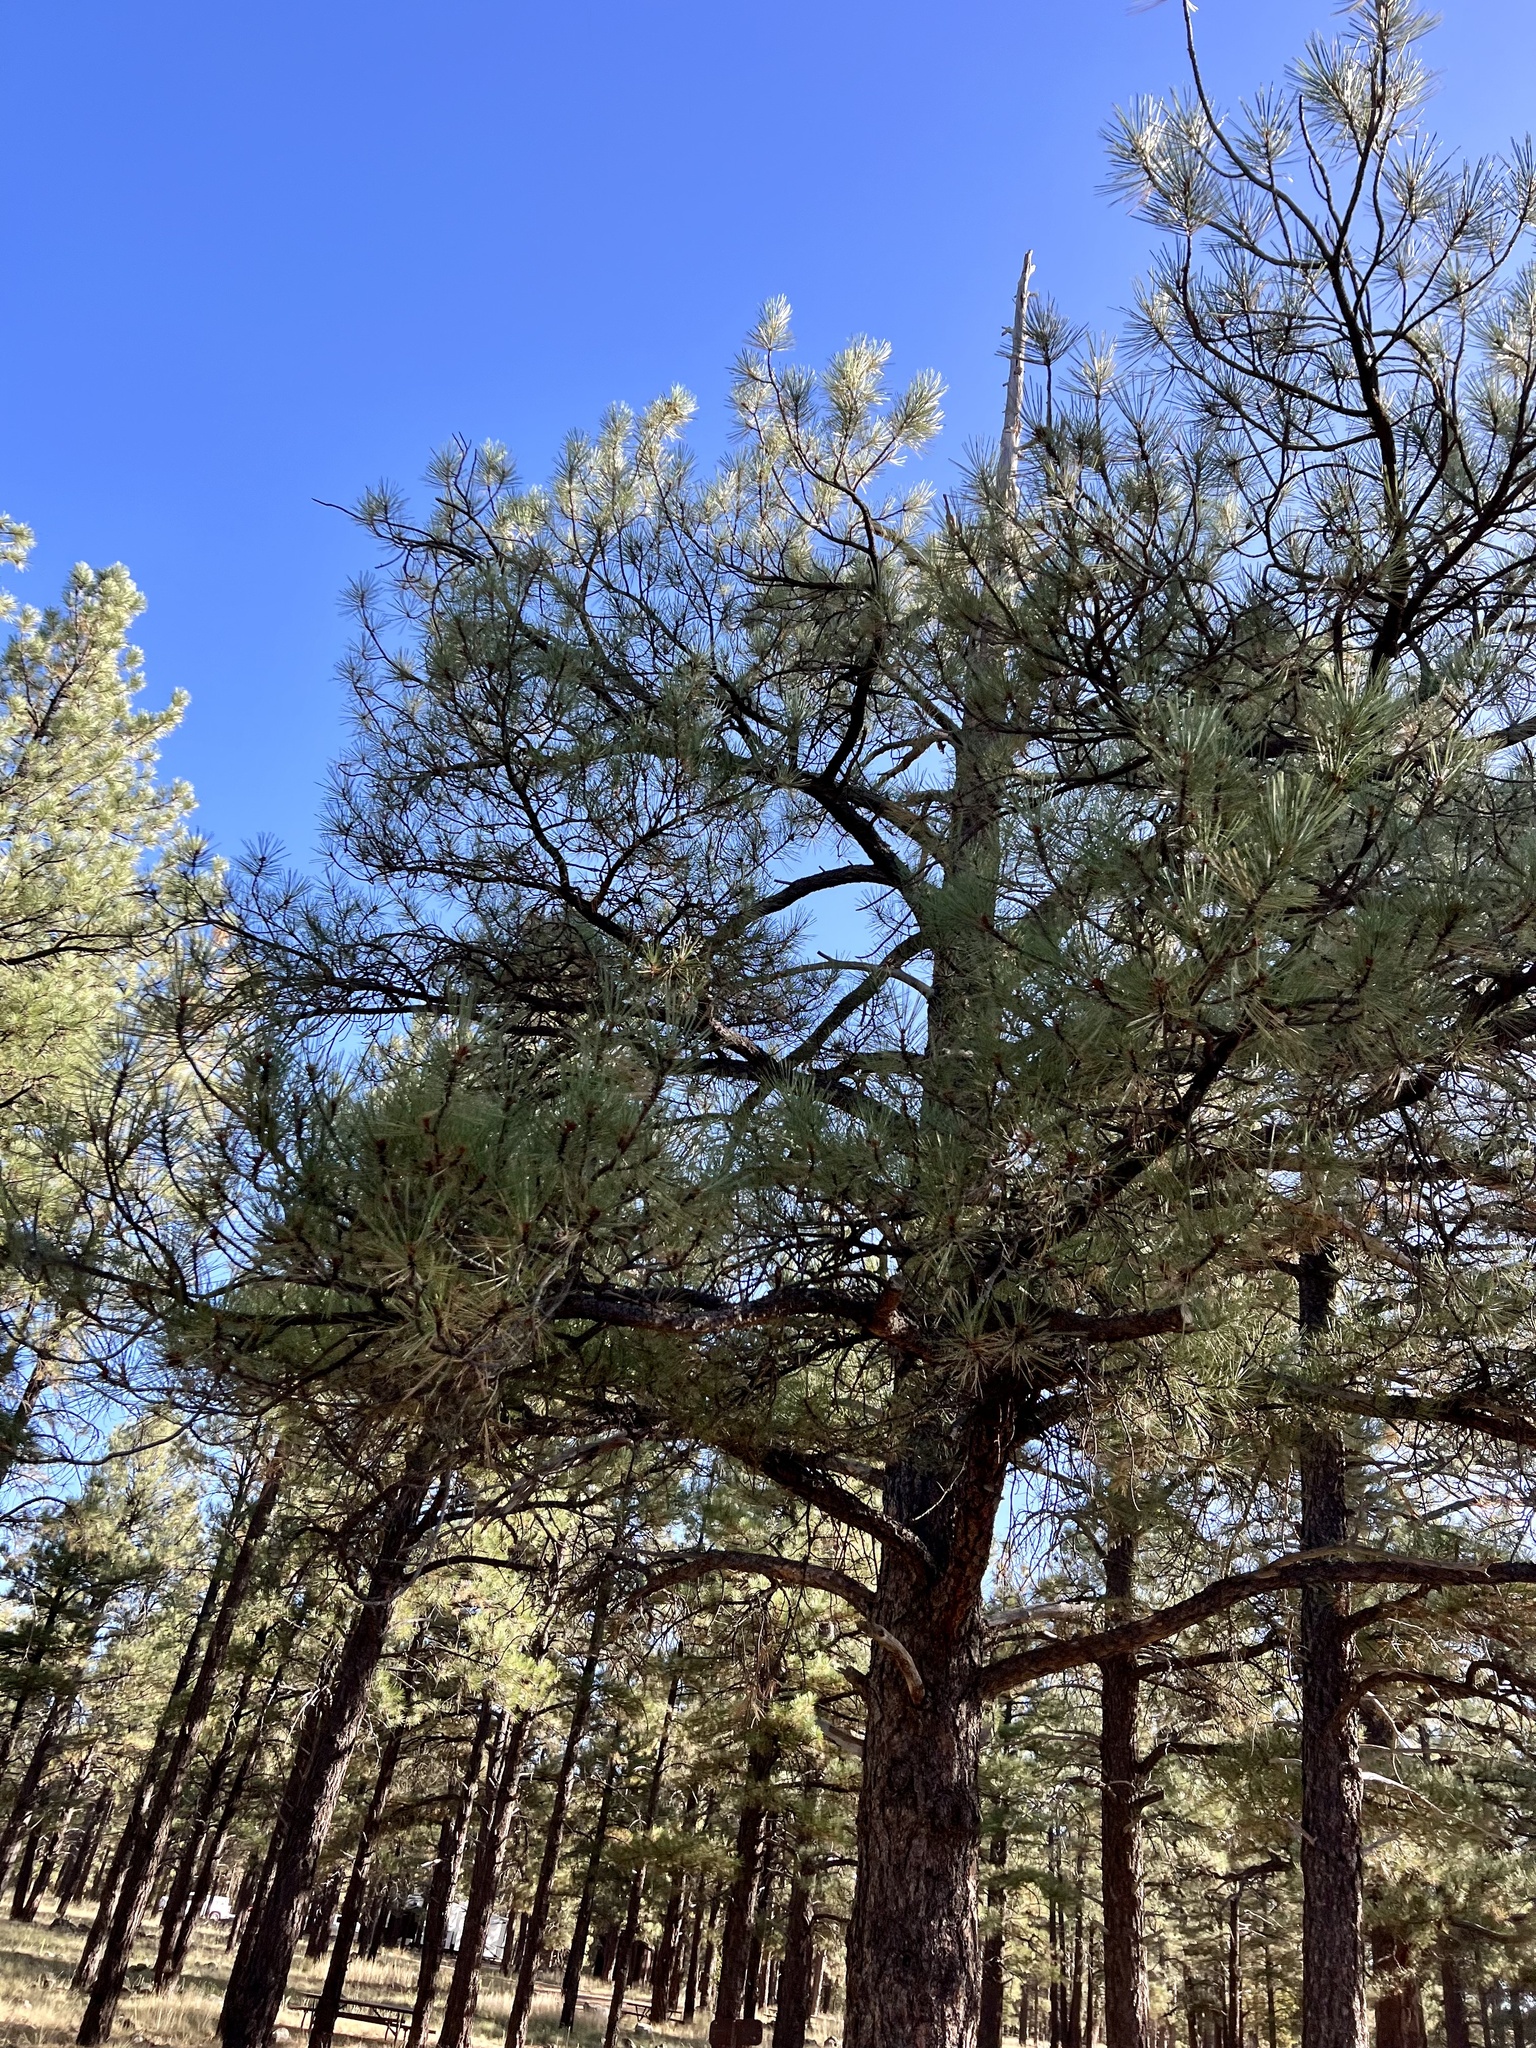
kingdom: Plantae
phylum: Tracheophyta
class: Pinopsida
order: Pinales
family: Pinaceae
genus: Pinus
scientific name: Pinus ponderosa
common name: Western yellow-pine
